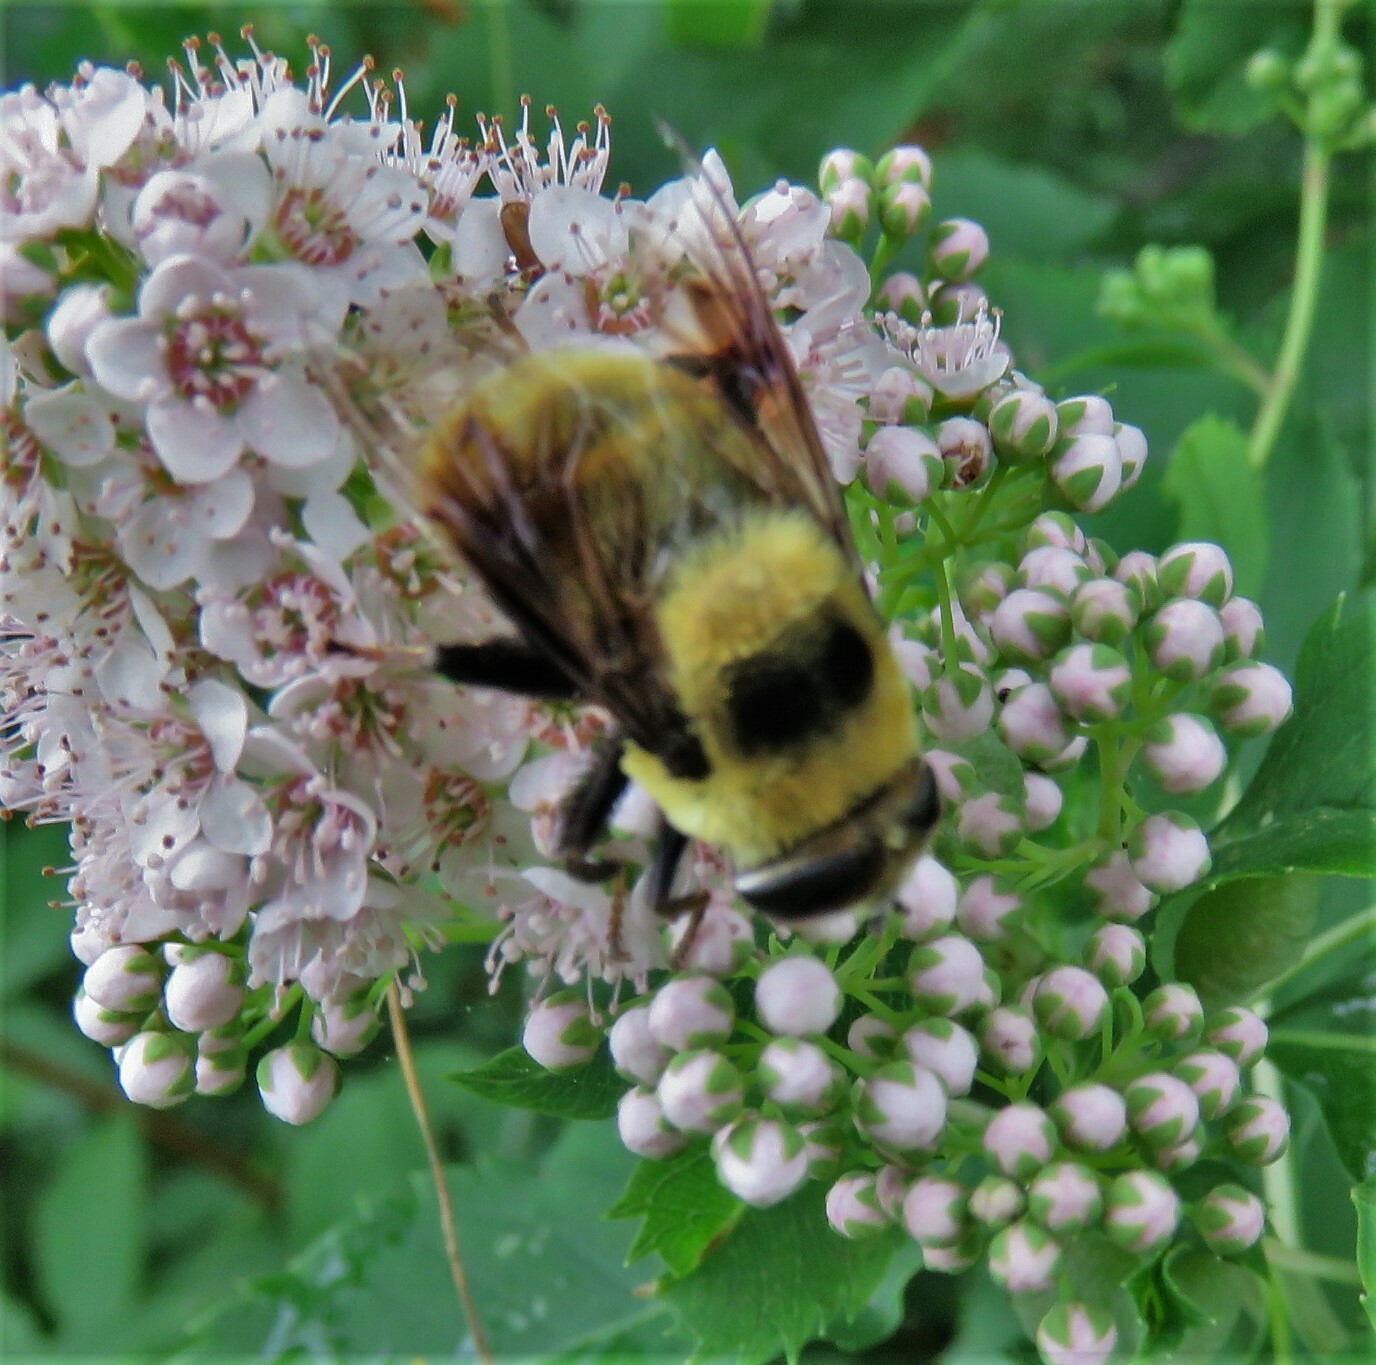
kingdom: Animalia
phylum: Arthropoda
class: Insecta
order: Diptera
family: Syrphidae
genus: Eristalis
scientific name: Eristalis flavipes
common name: Orange-legged drone fly
